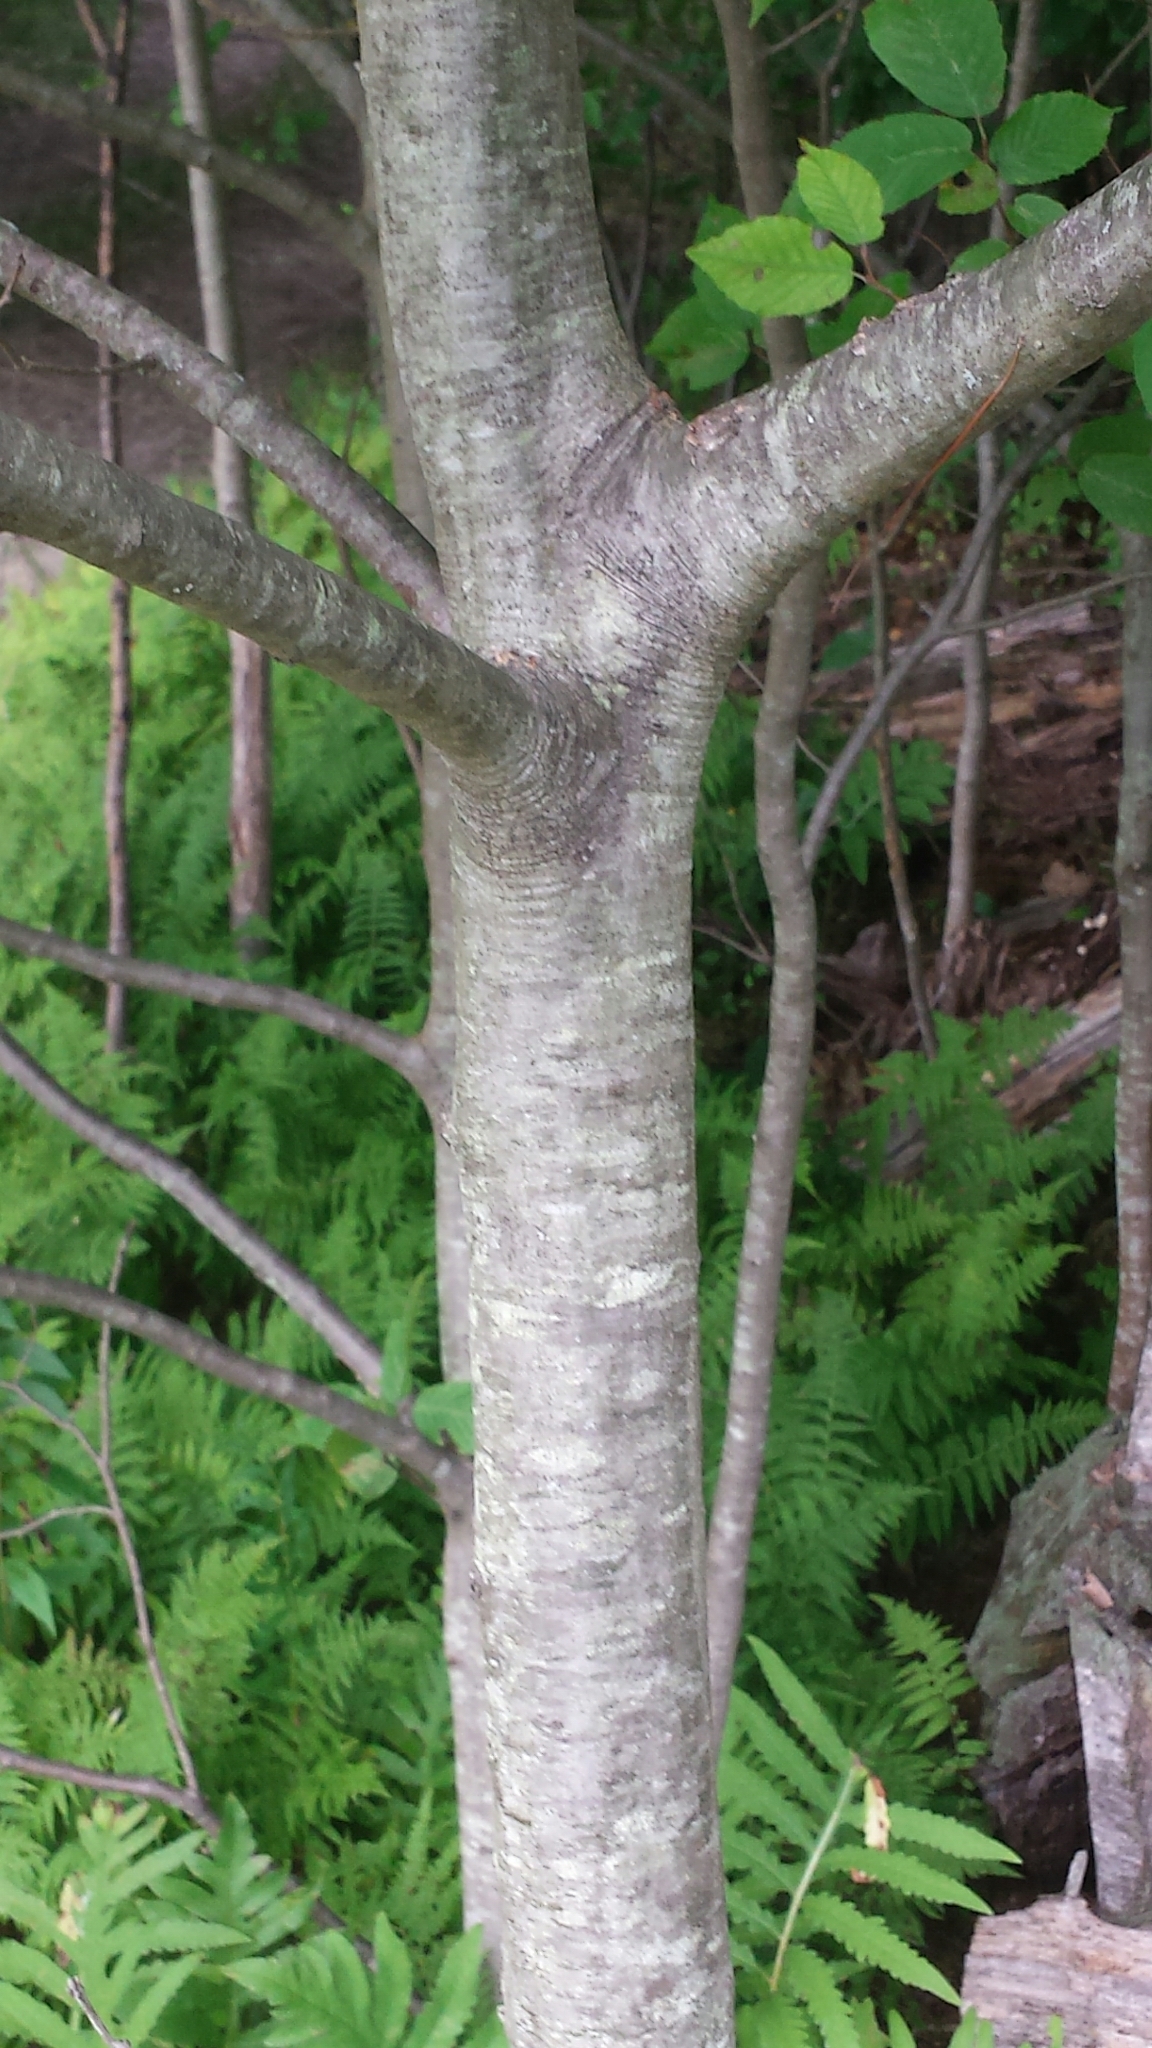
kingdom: Plantae
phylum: Tracheophyta
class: Magnoliopsida
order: Fagales
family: Fagaceae
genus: Quercus
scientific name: Quercus rubra
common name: Red oak
